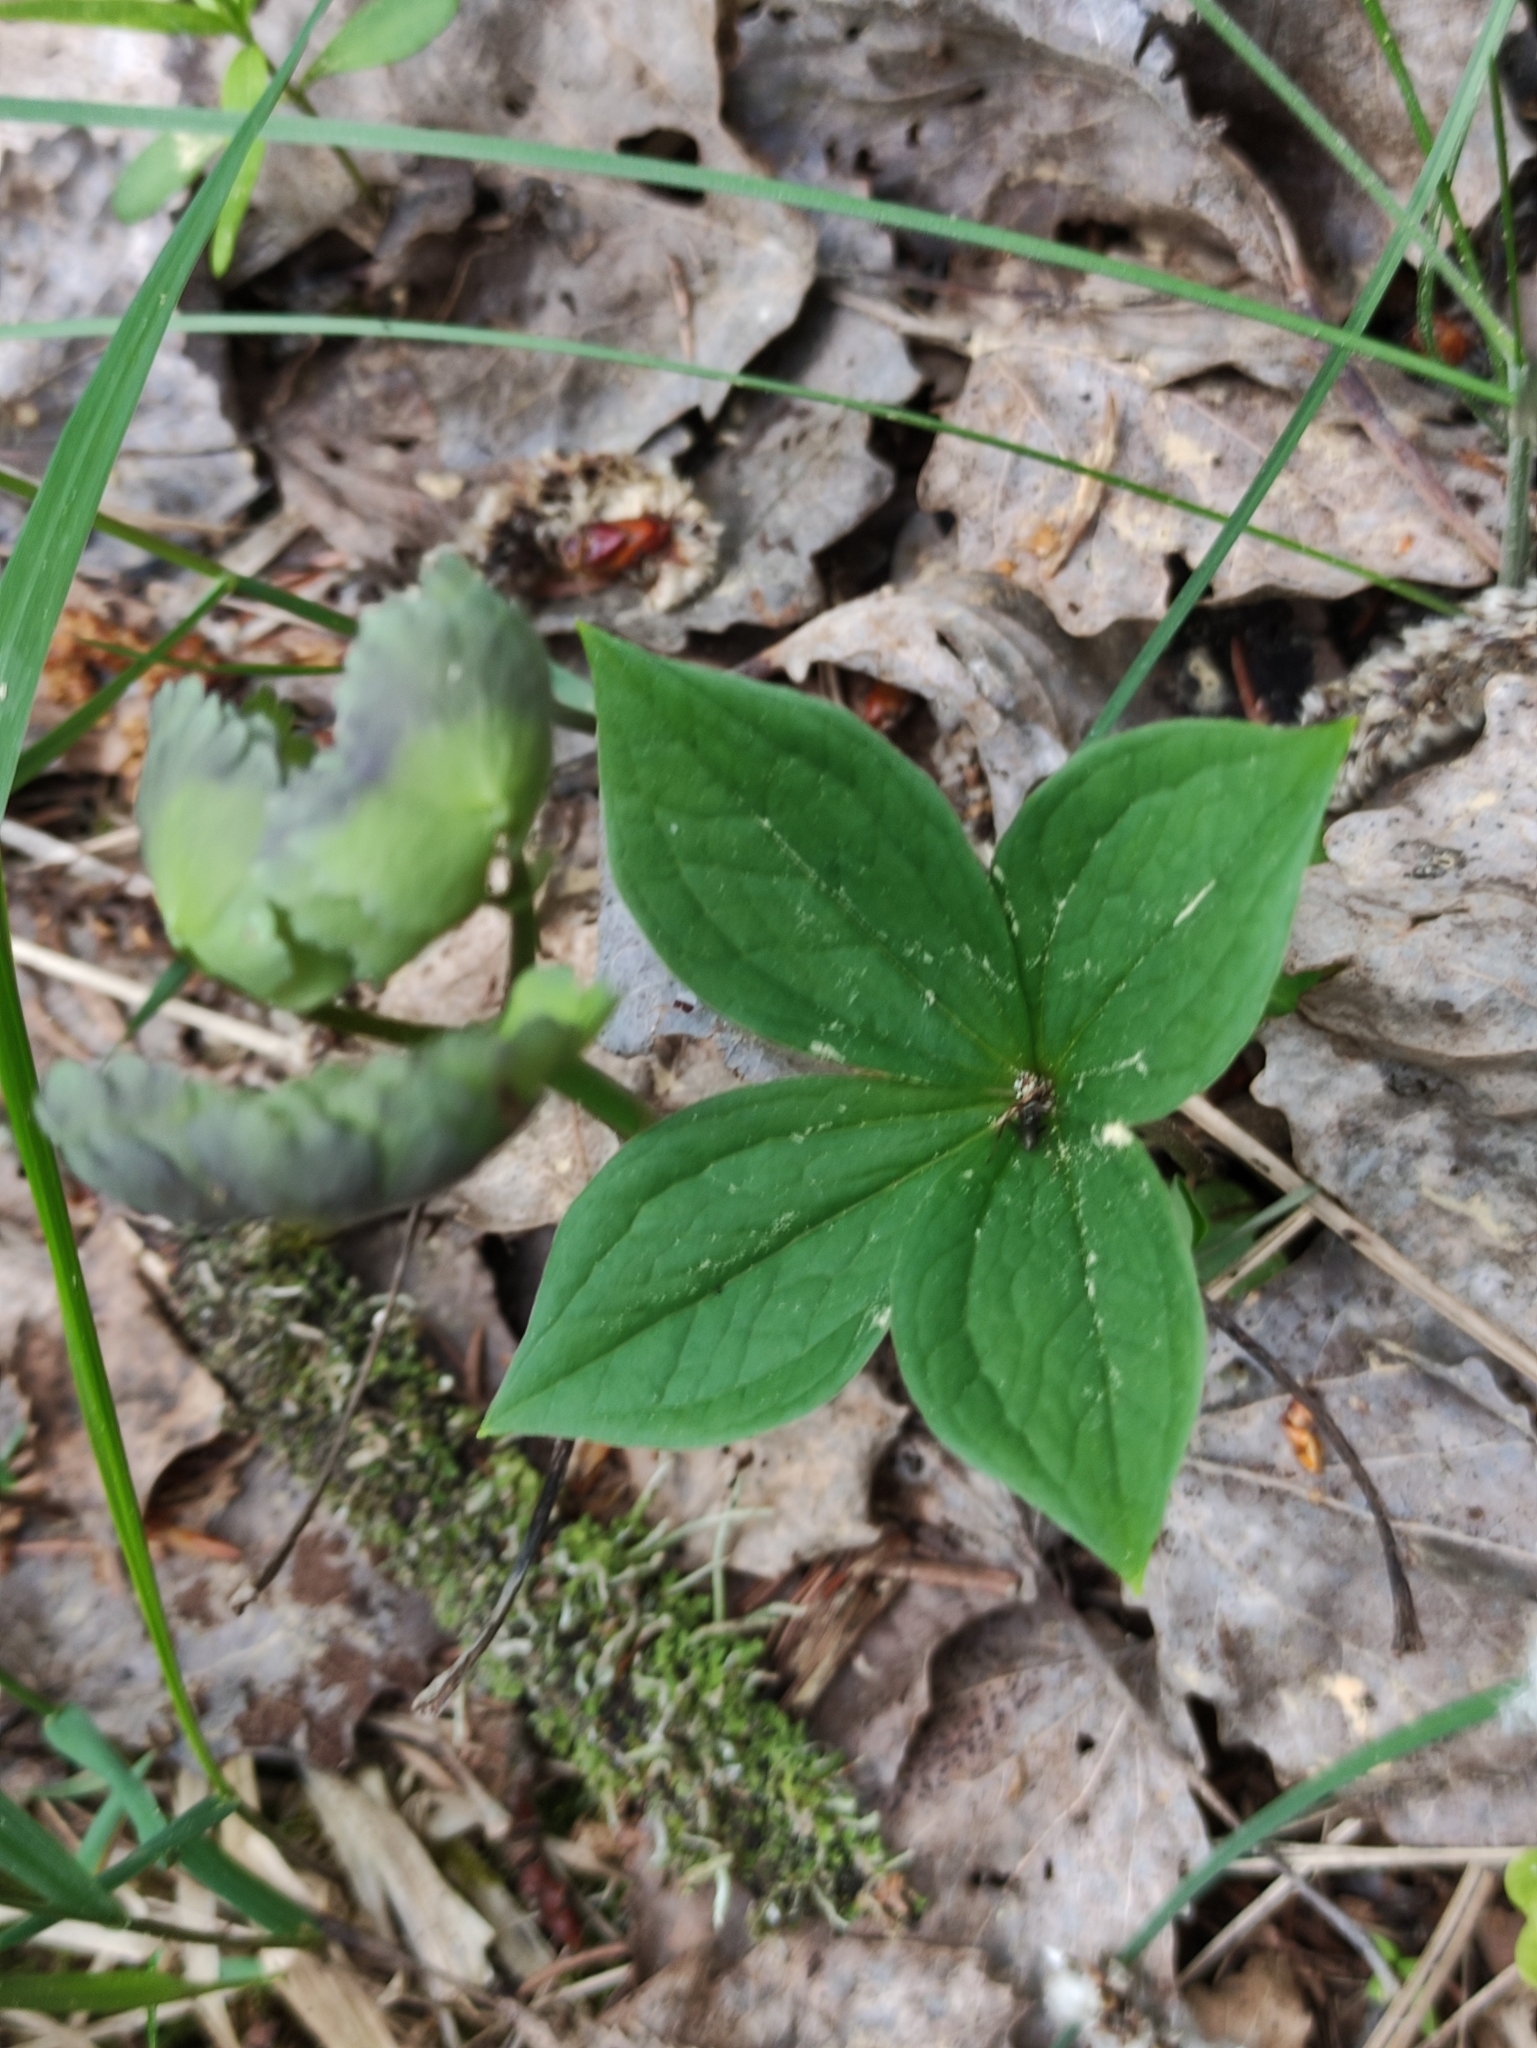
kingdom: Plantae
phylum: Tracheophyta
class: Liliopsida
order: Liliales
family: Melanthiaceae
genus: Paris
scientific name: Paris quadrifolia
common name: Herb-paris
